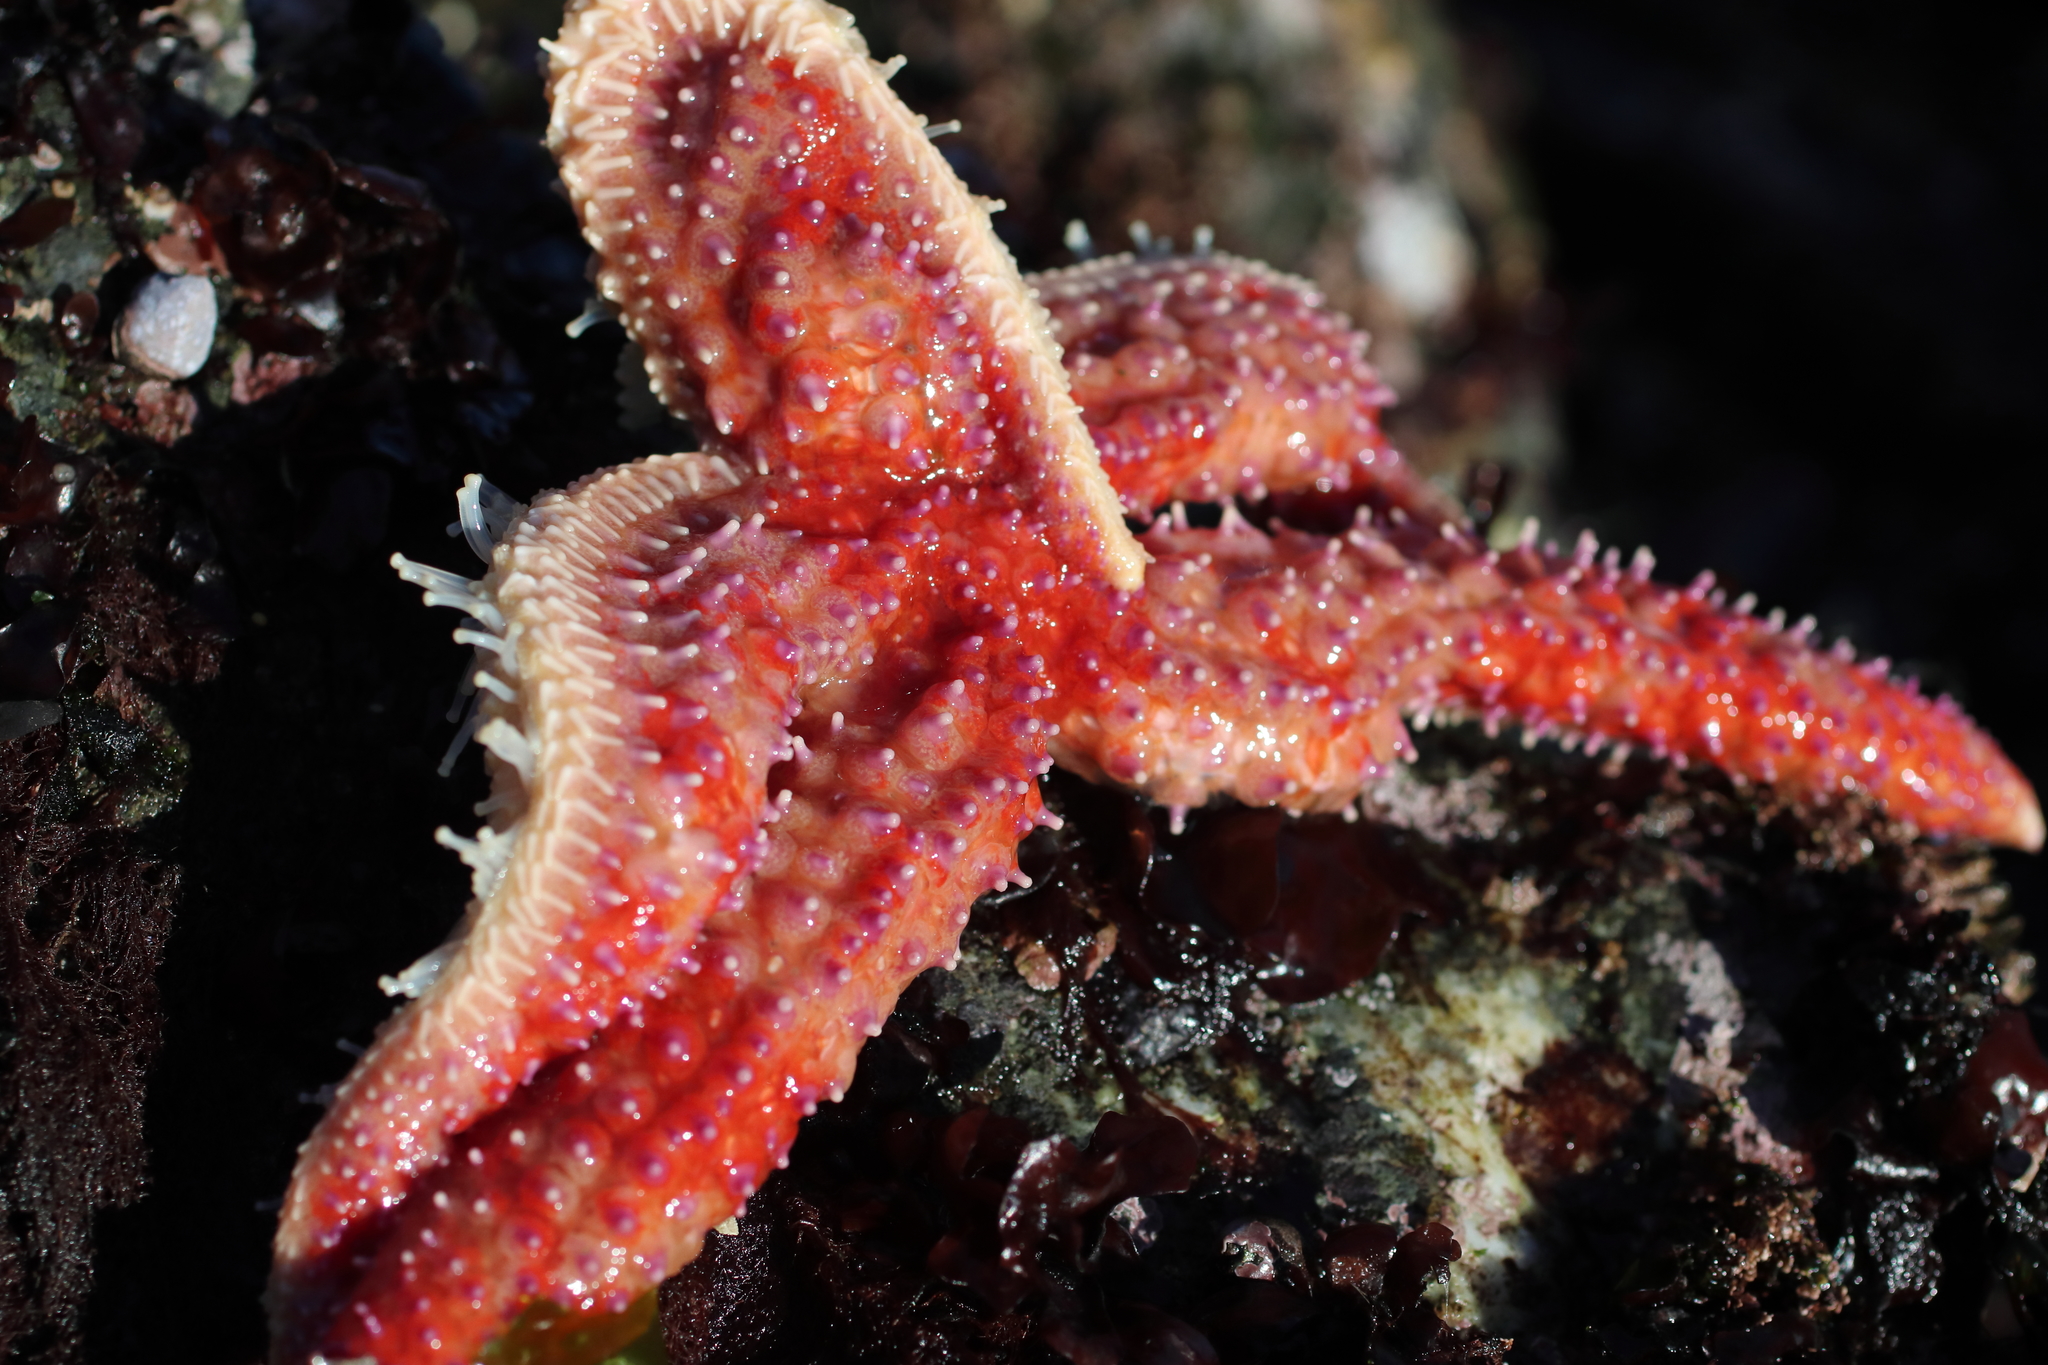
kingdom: Animalia
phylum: Echinodermata
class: Asteroidea
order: Forcipulatida
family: Asteriidae
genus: Orthasterias
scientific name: Orthasterias koehleri
